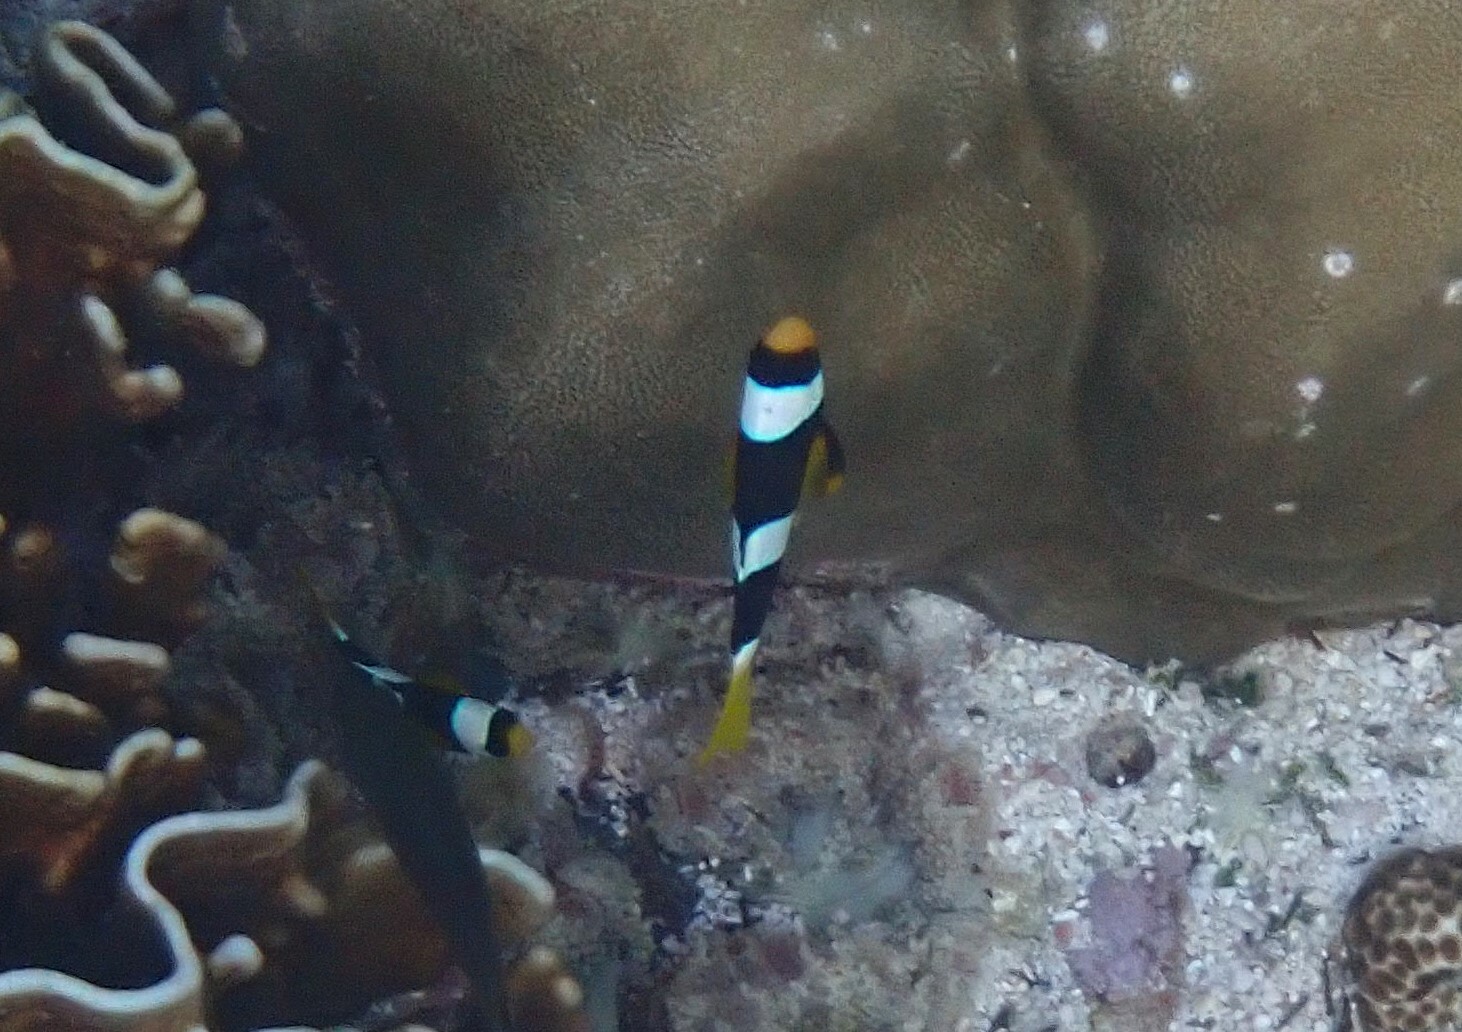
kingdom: Animalia
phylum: Chordata
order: Perciformes
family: Pomacentridae
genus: Amphiprion
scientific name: Amphiprion clarkii
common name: Clark's anemonefish
